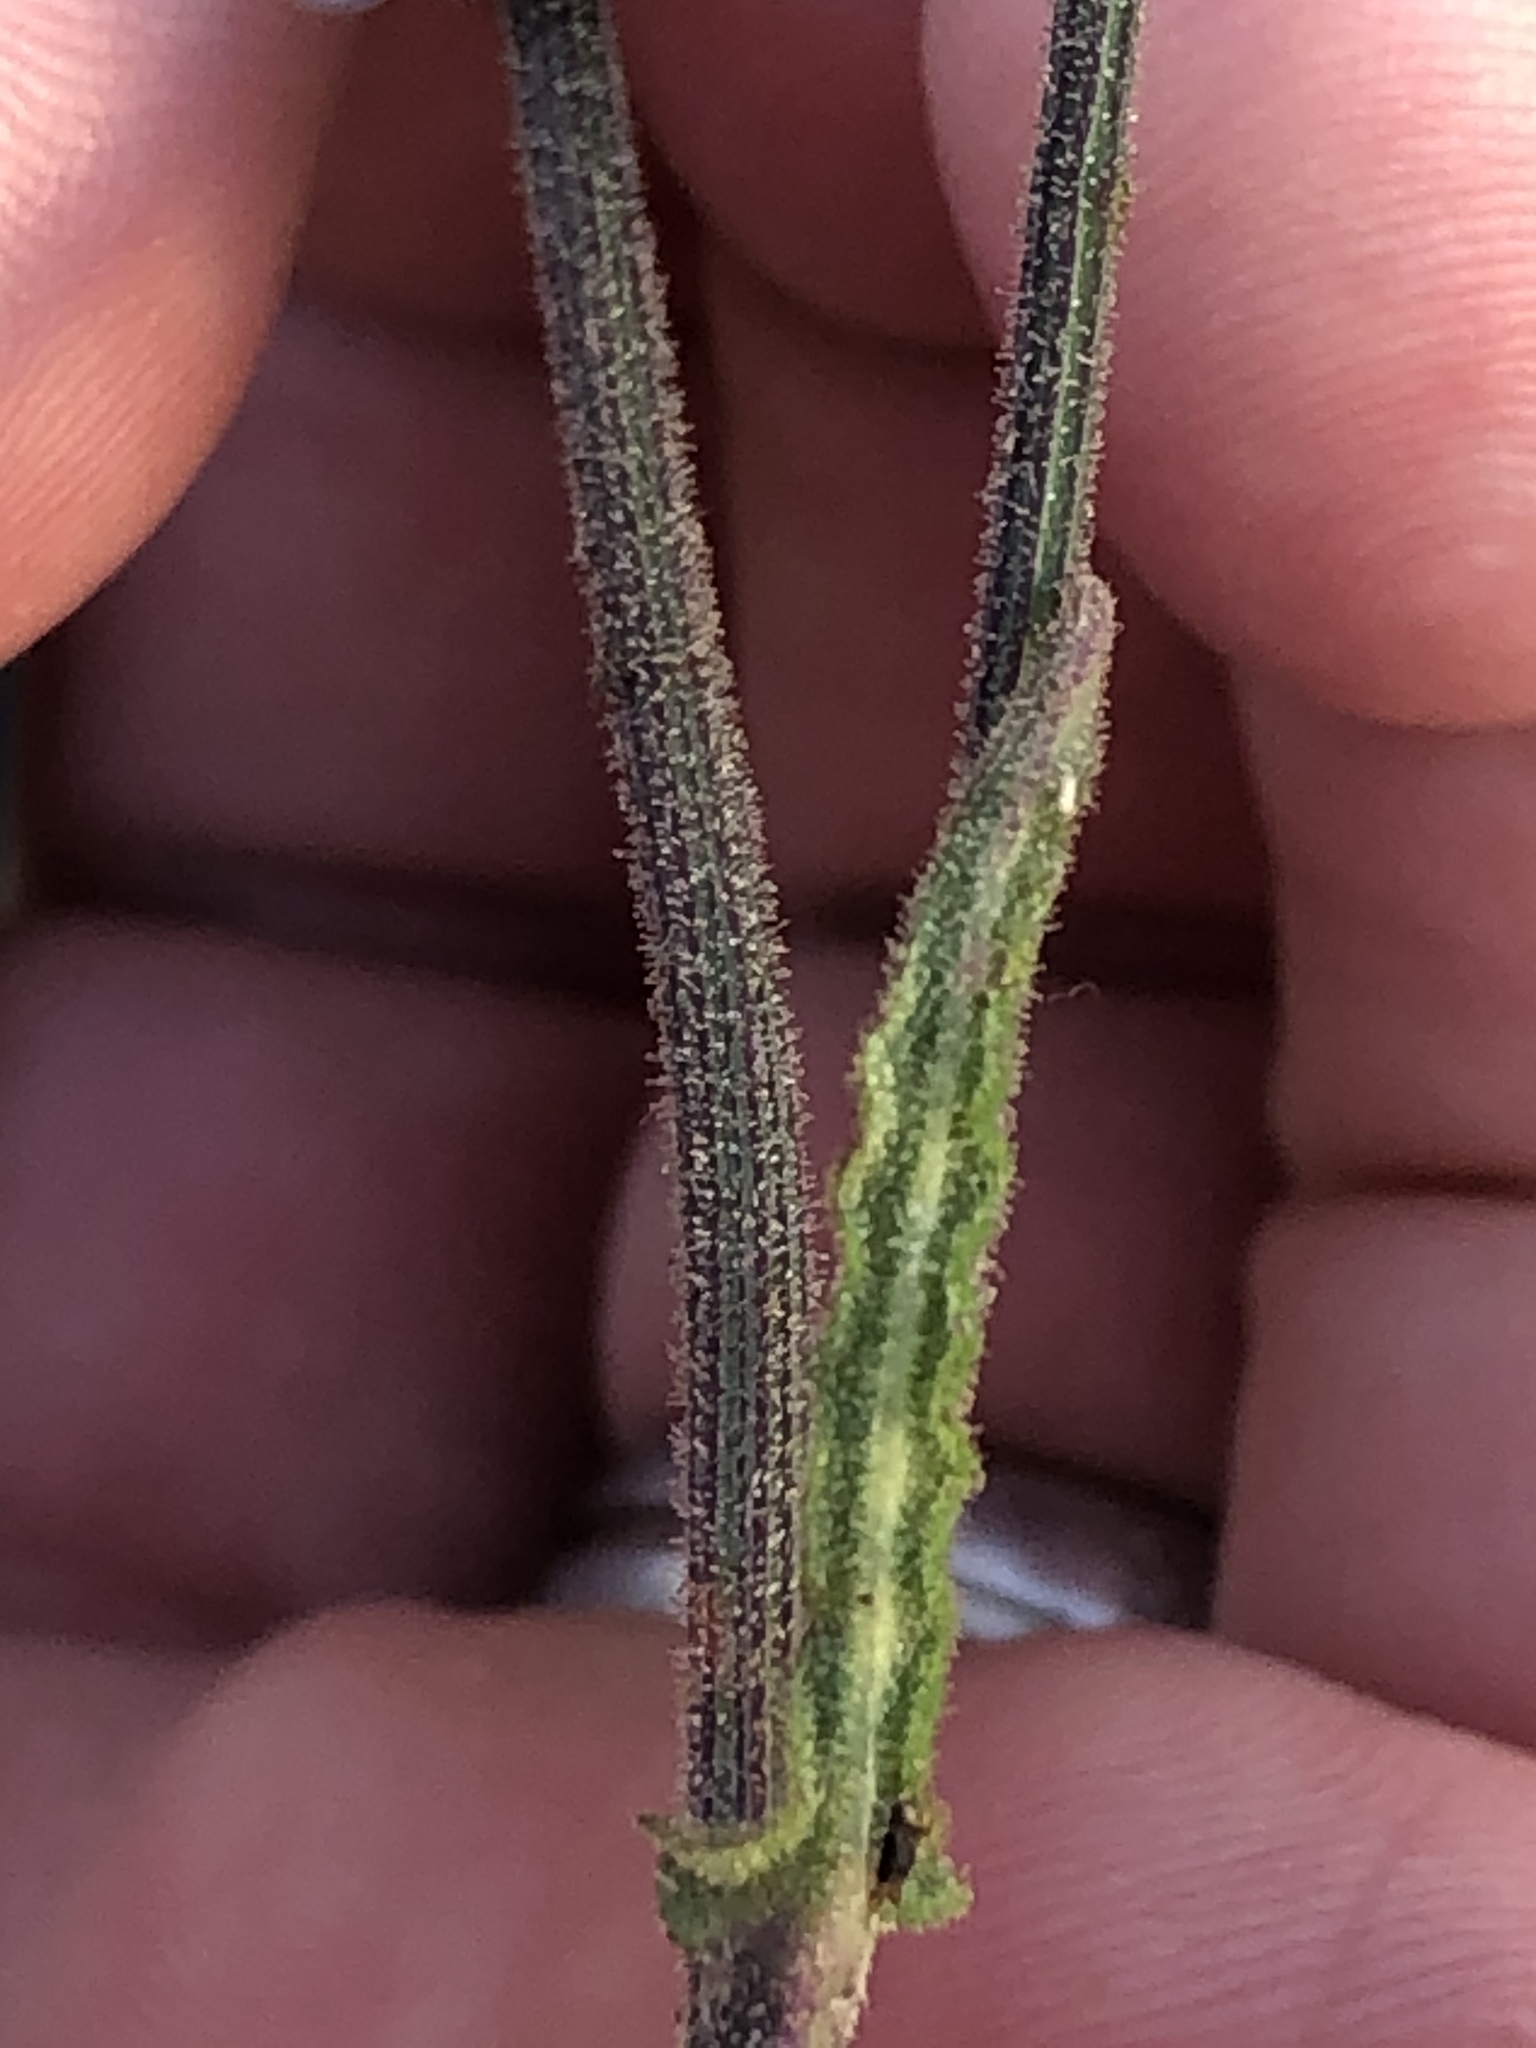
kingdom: Plantae
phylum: Tracheophyta
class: Magnoliopsida
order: Asterales
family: Asteraceae
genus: Senecio
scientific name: Senecio purpureus
